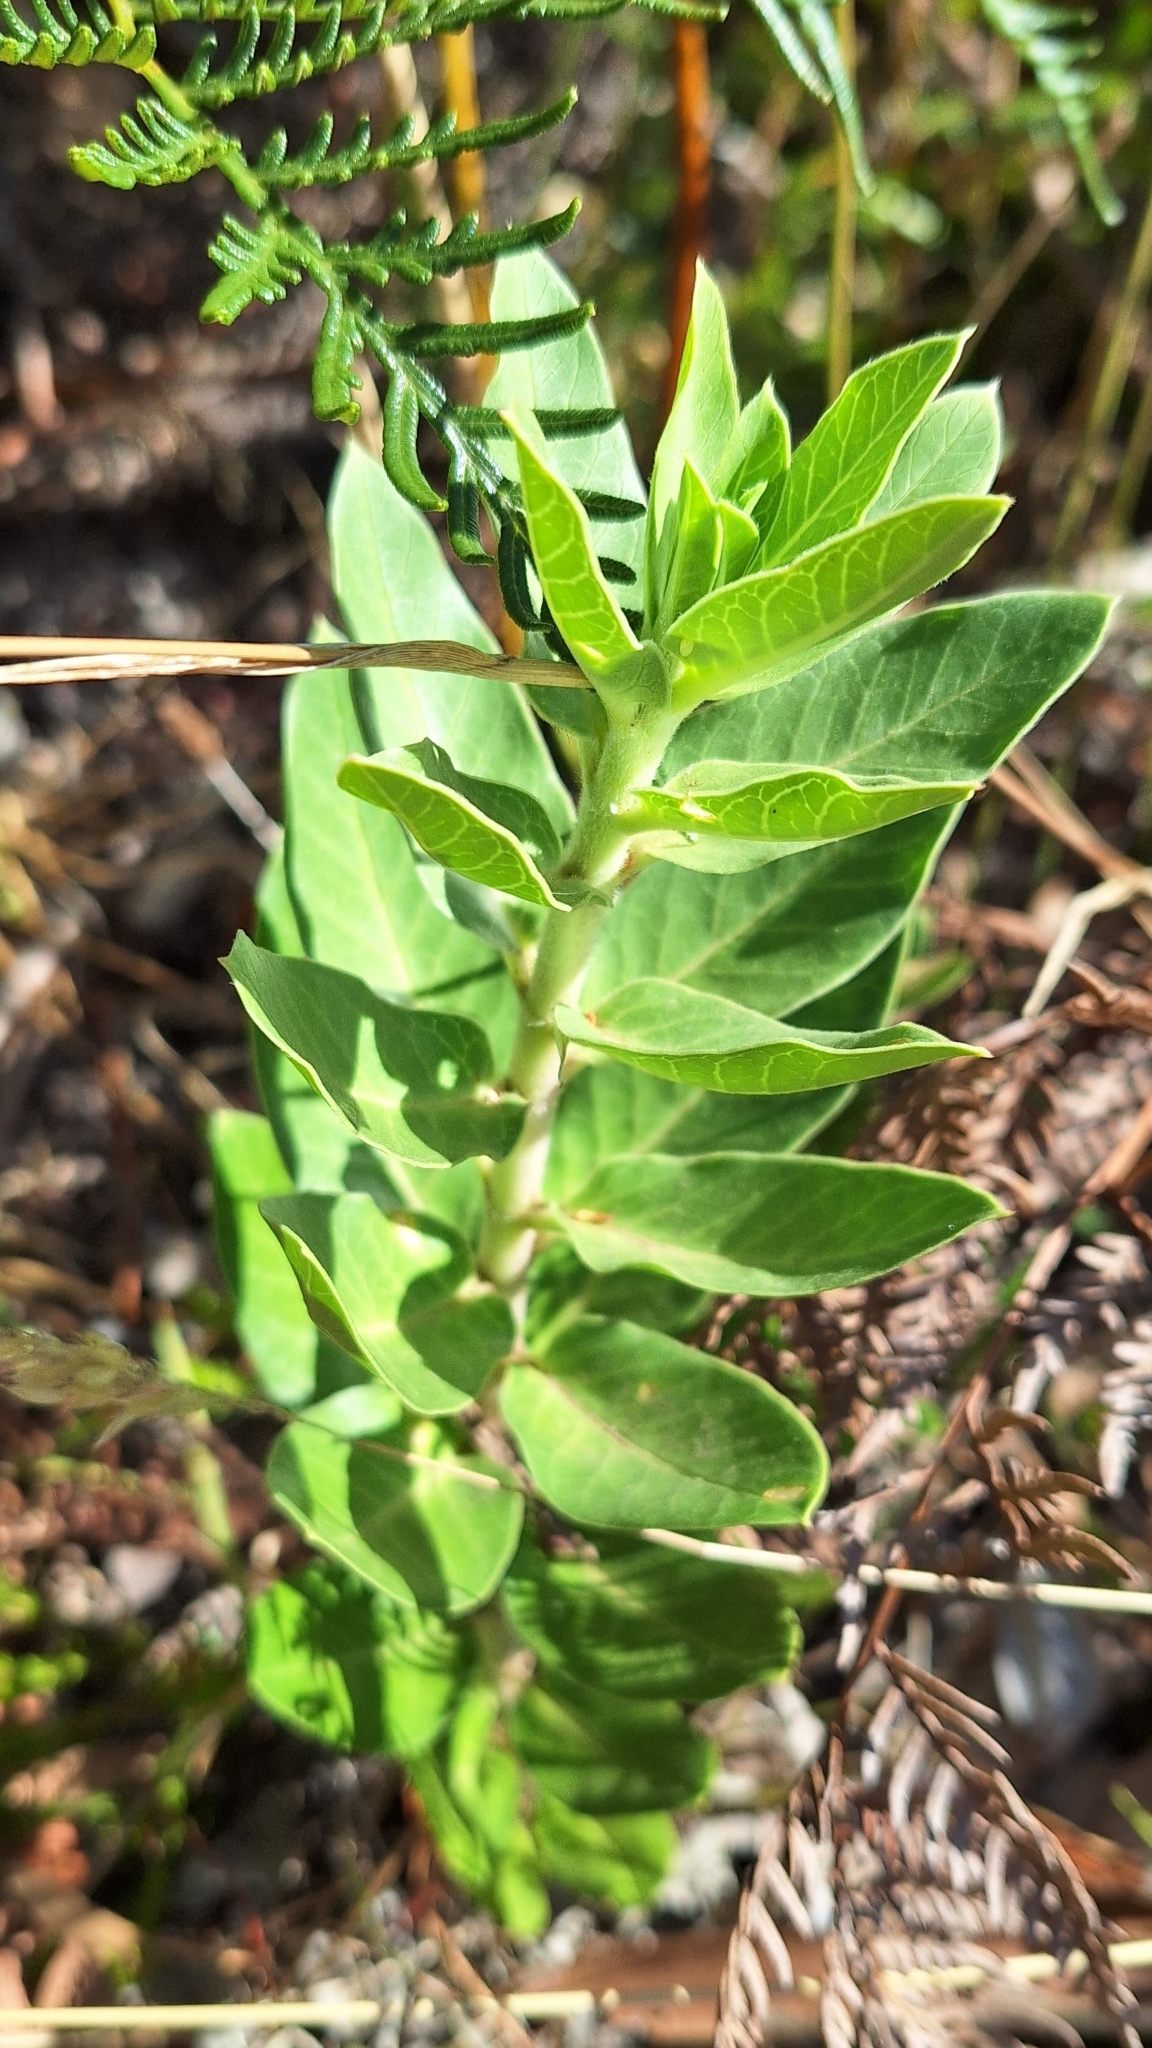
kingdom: Plantae
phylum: Tracheophyta
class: Magnoliopsida
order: Gentianales
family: Apocynaceae
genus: Gomphocarpus
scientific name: Gomphocarpus cancellatus
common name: Wild cotton
